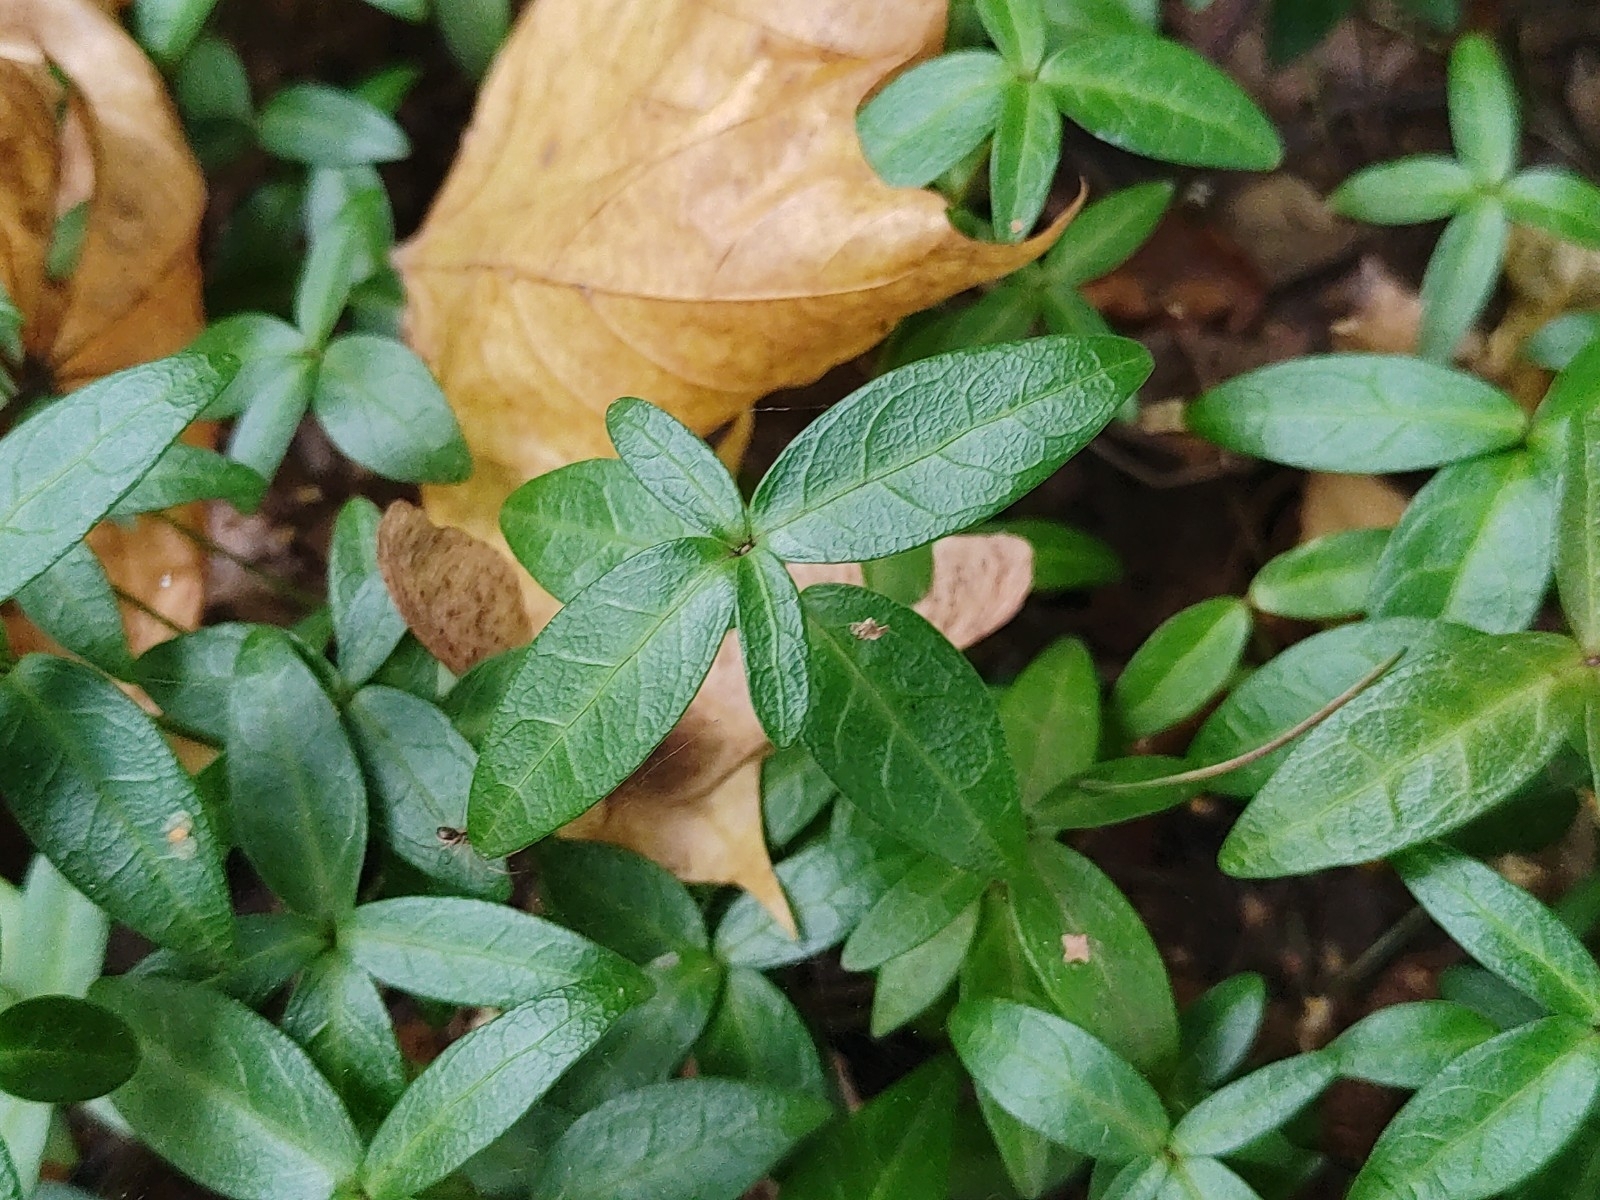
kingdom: Plantae
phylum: Tracheophyta
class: Magnoliopsida
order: Gentianales
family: Apocynaceae
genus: Vinca
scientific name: Vinca minor
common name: Lesser periwinkle
